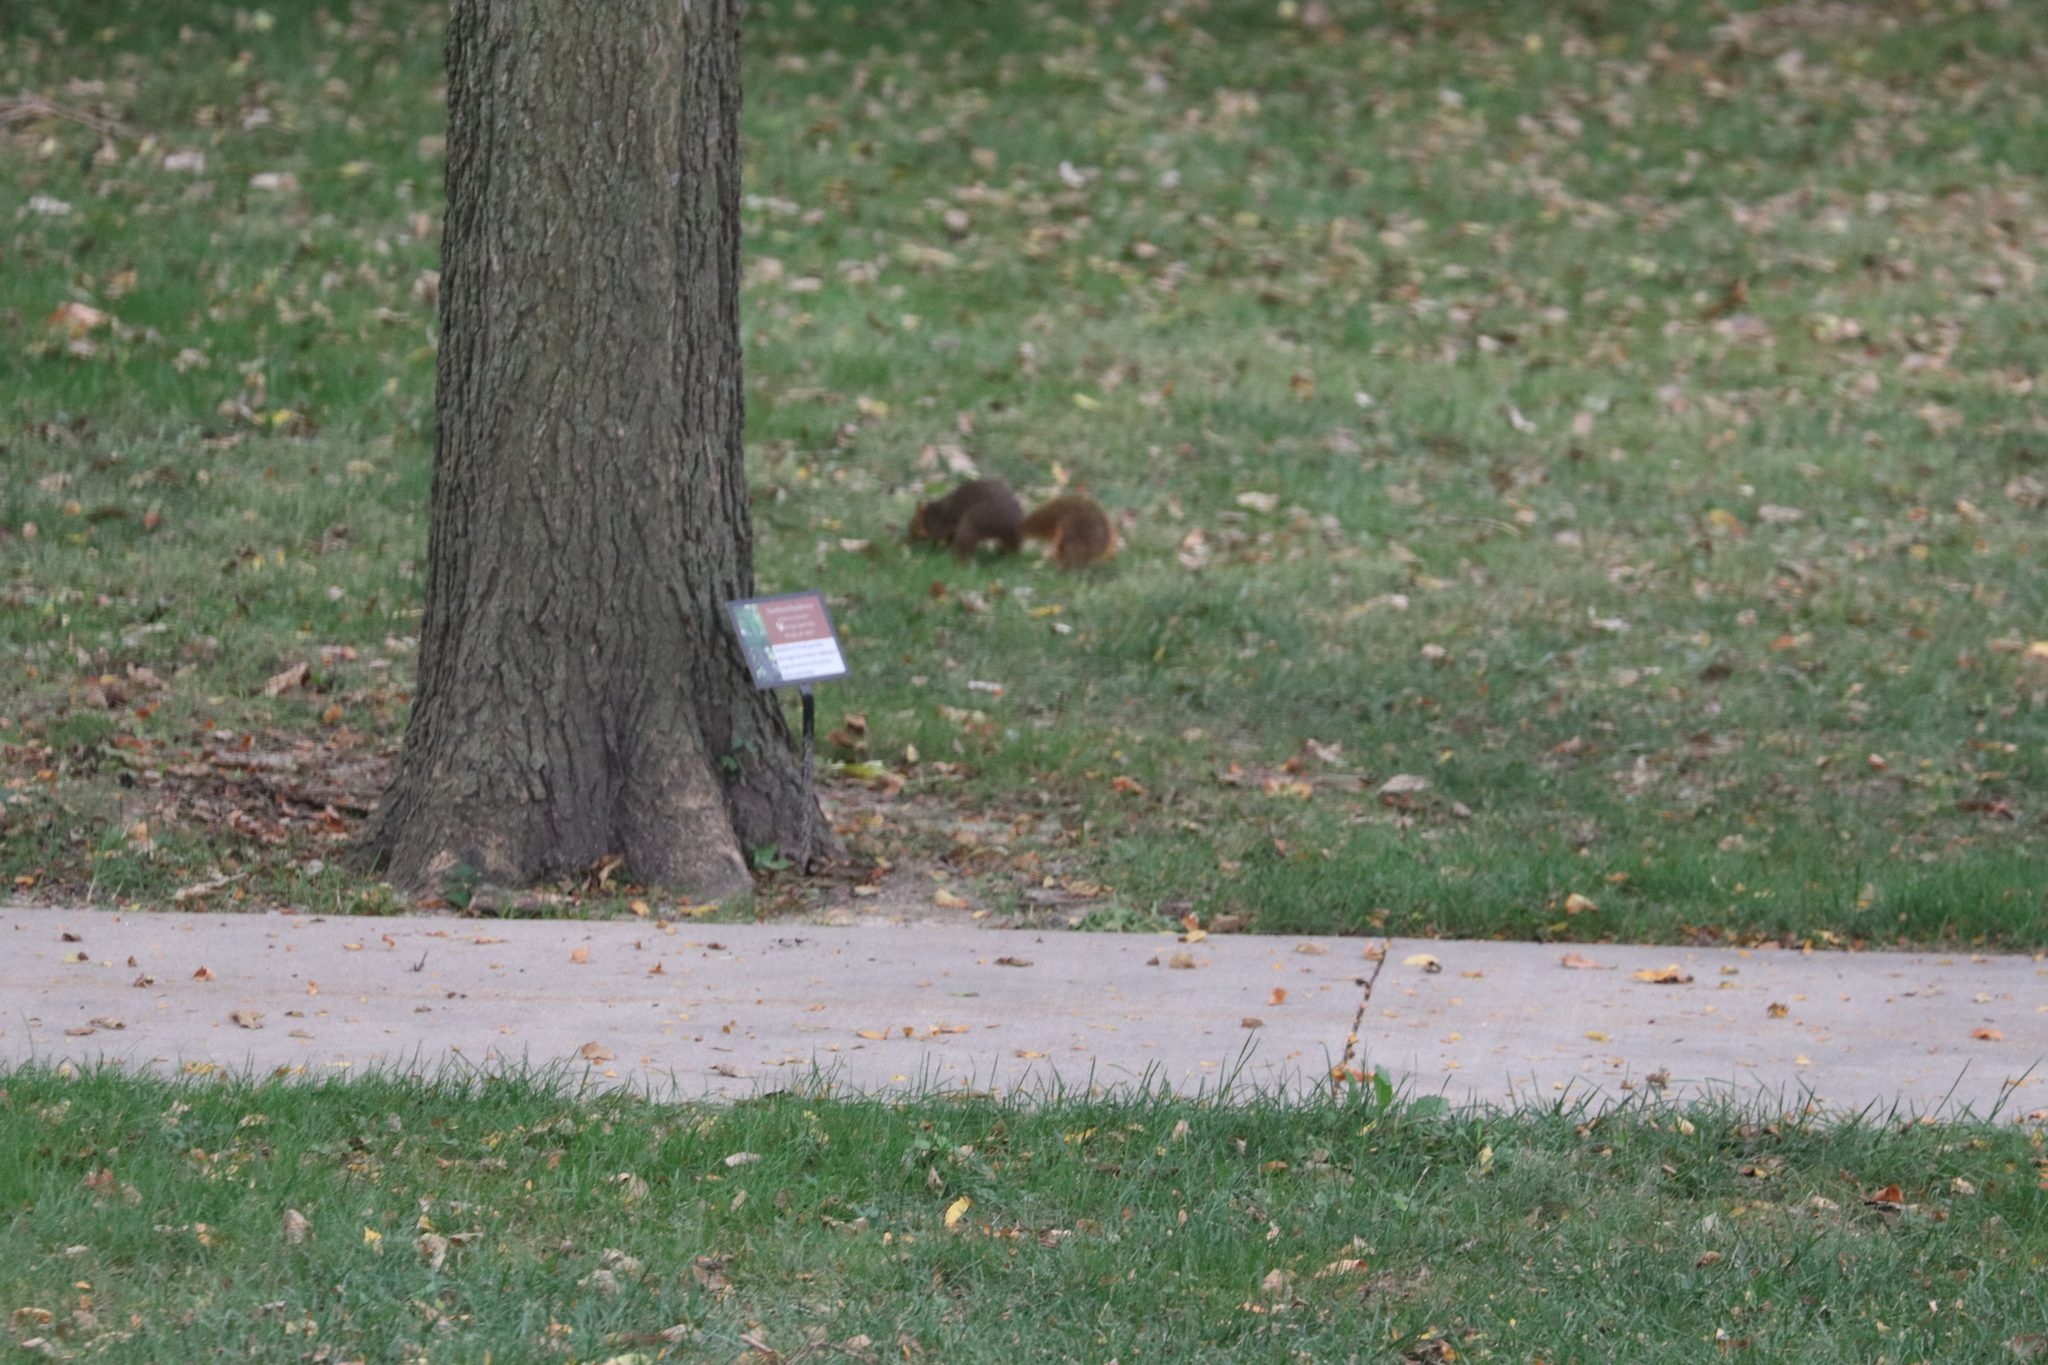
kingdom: Animalia
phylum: Chordata
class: Mammalia
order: Rodentia
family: Sciuridae
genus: Sciurus
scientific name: Sciurus niger
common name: Fox squirrel
